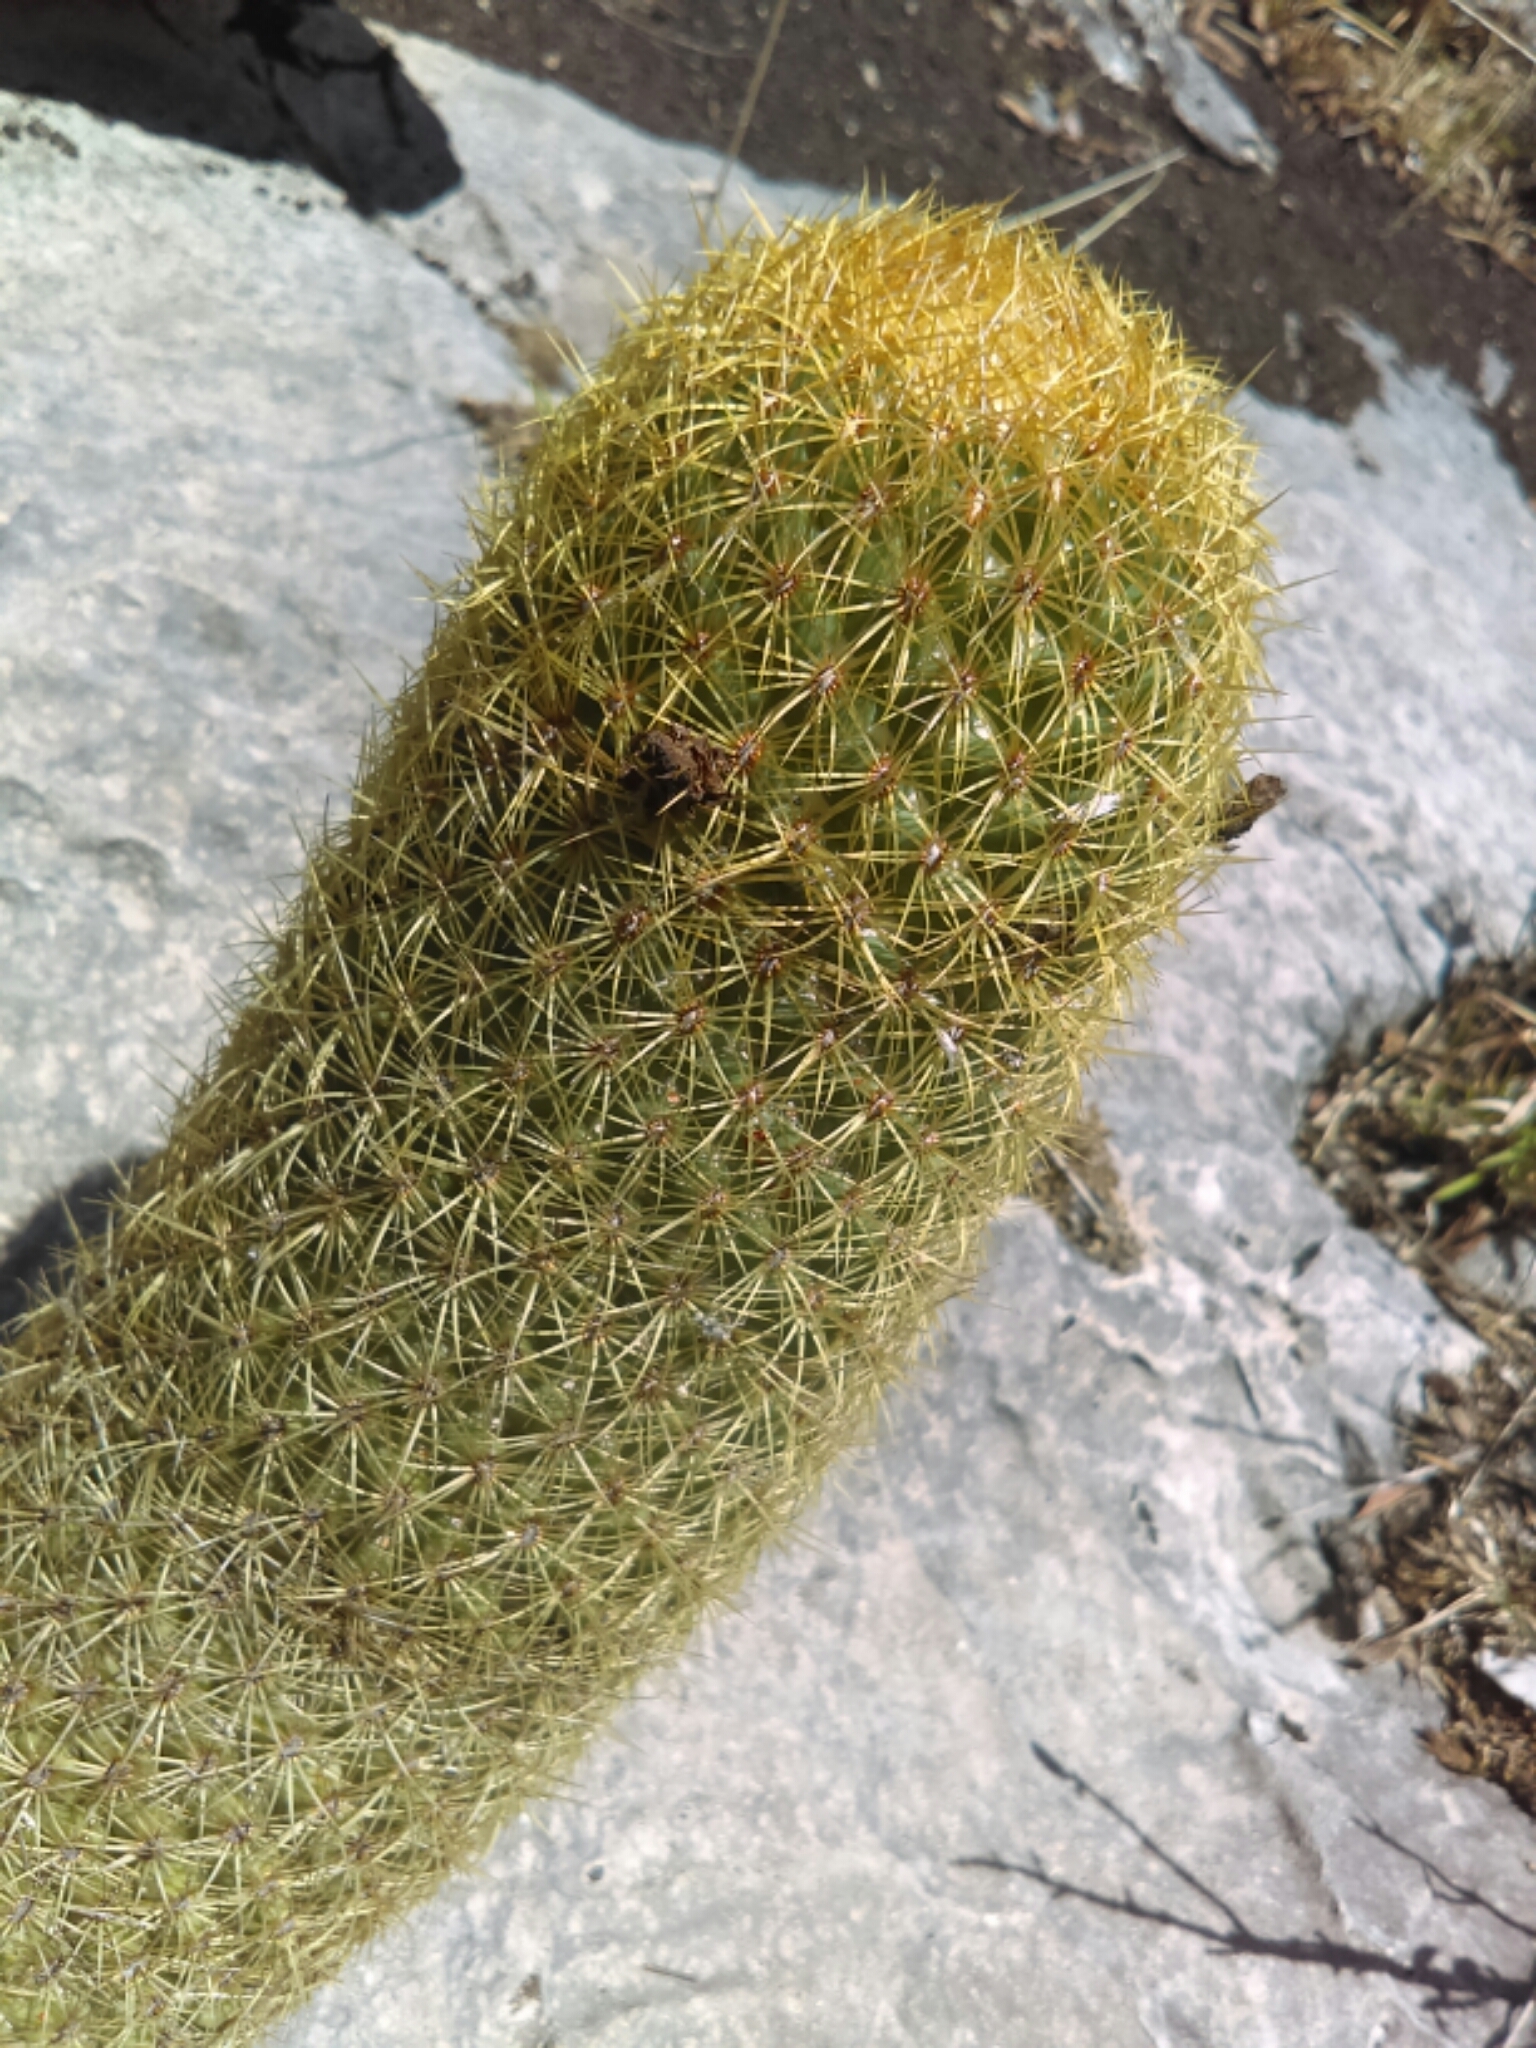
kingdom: Plantae
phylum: Tracheophyta
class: Magnoliopsida
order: Caryophyllales
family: Cactaceae
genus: Coryphantha
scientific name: Coryphantha erecta
